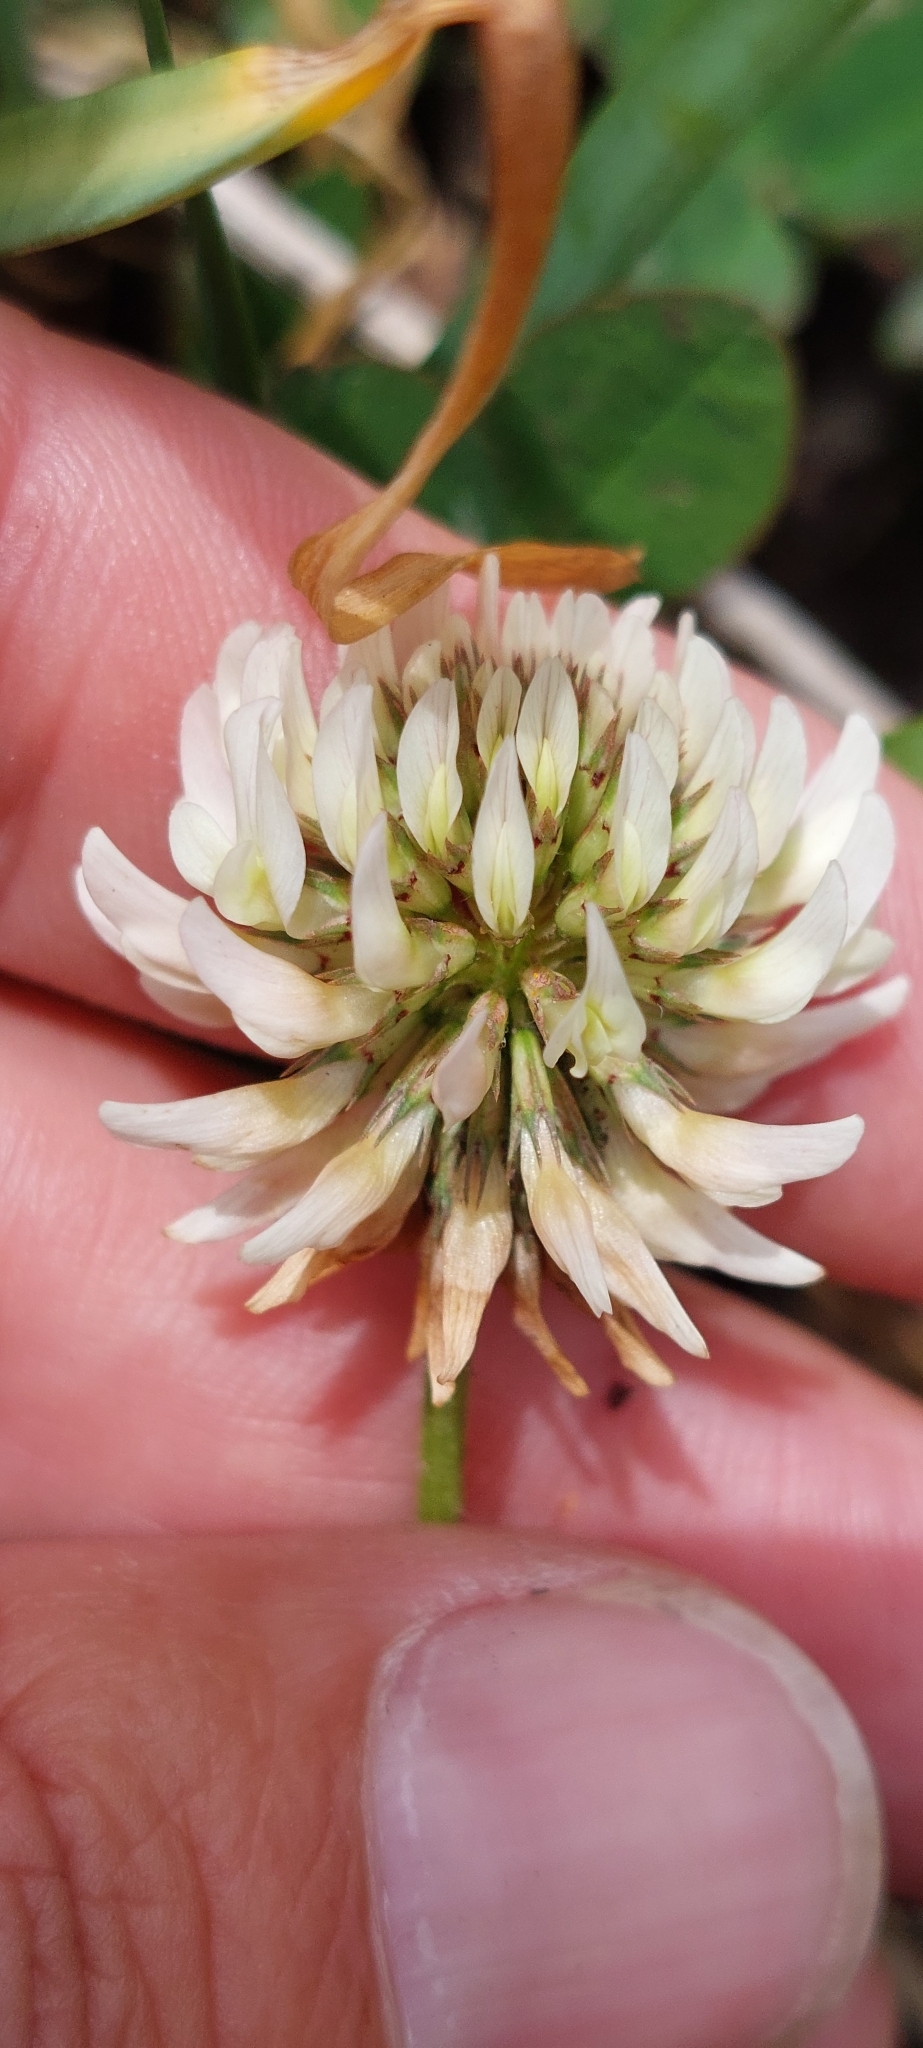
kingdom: Plantae
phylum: Tracheophyta
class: Magnoliopsida
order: Fabales
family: Fabaceae
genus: Trifolium
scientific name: Trifolium repens
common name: White clover
